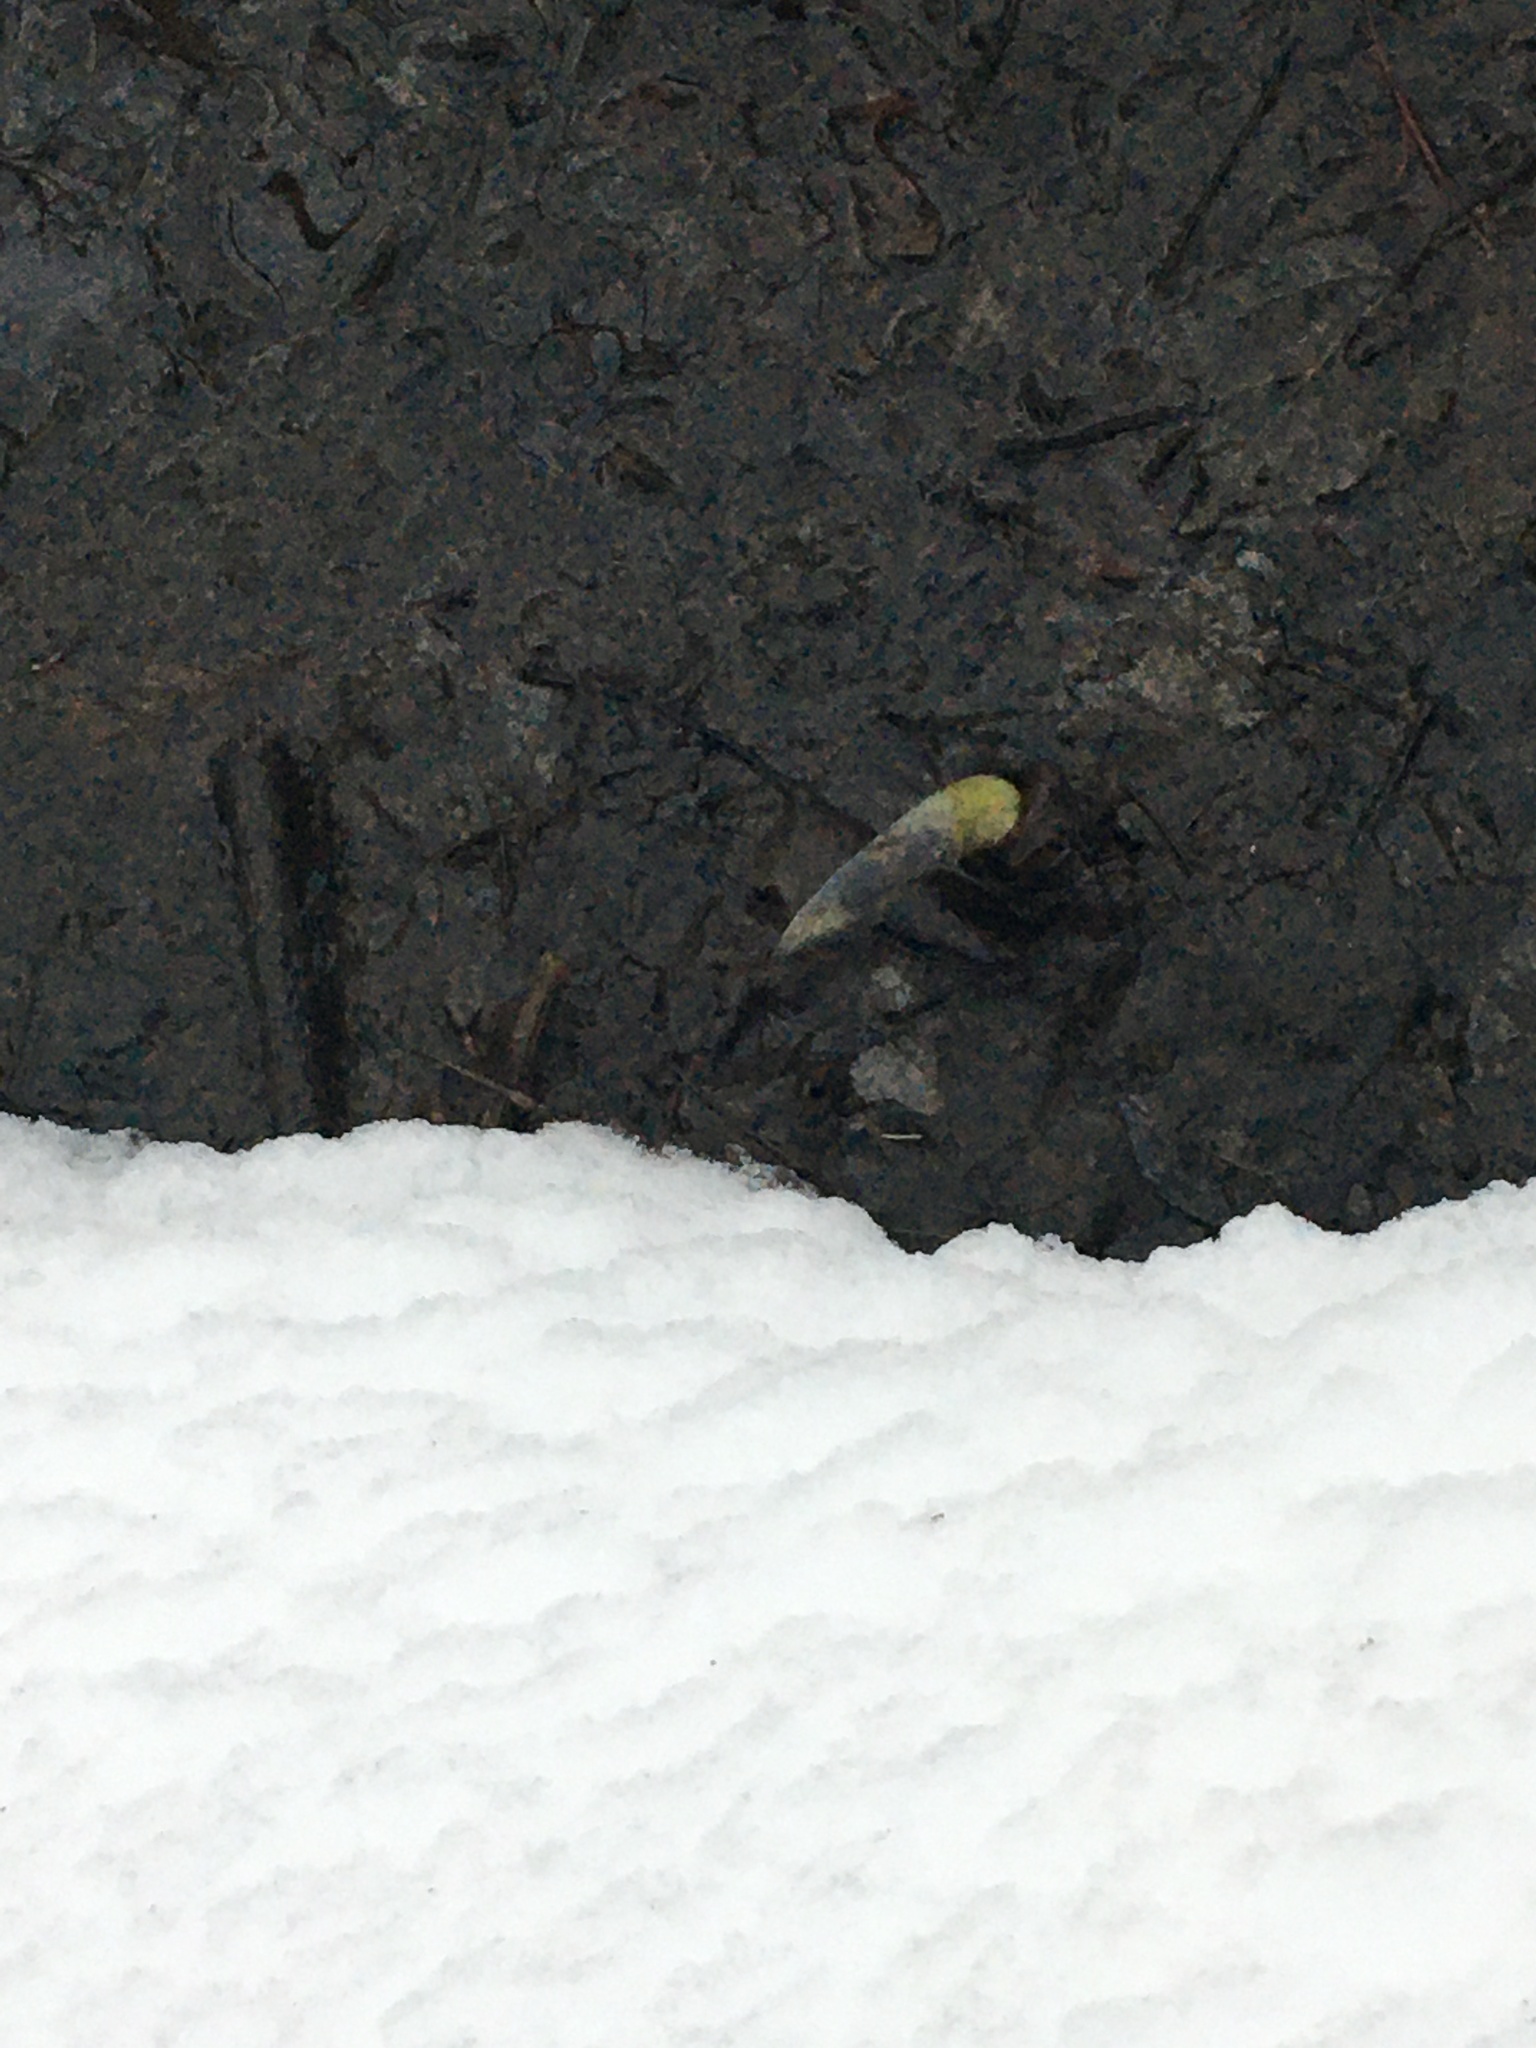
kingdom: Plantae
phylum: Tracheophyta
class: Liliopsida
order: Alismatales
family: Araceae
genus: Symplocarpus
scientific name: Symplocarpus foetidus
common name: Eastern skunk cabbage
